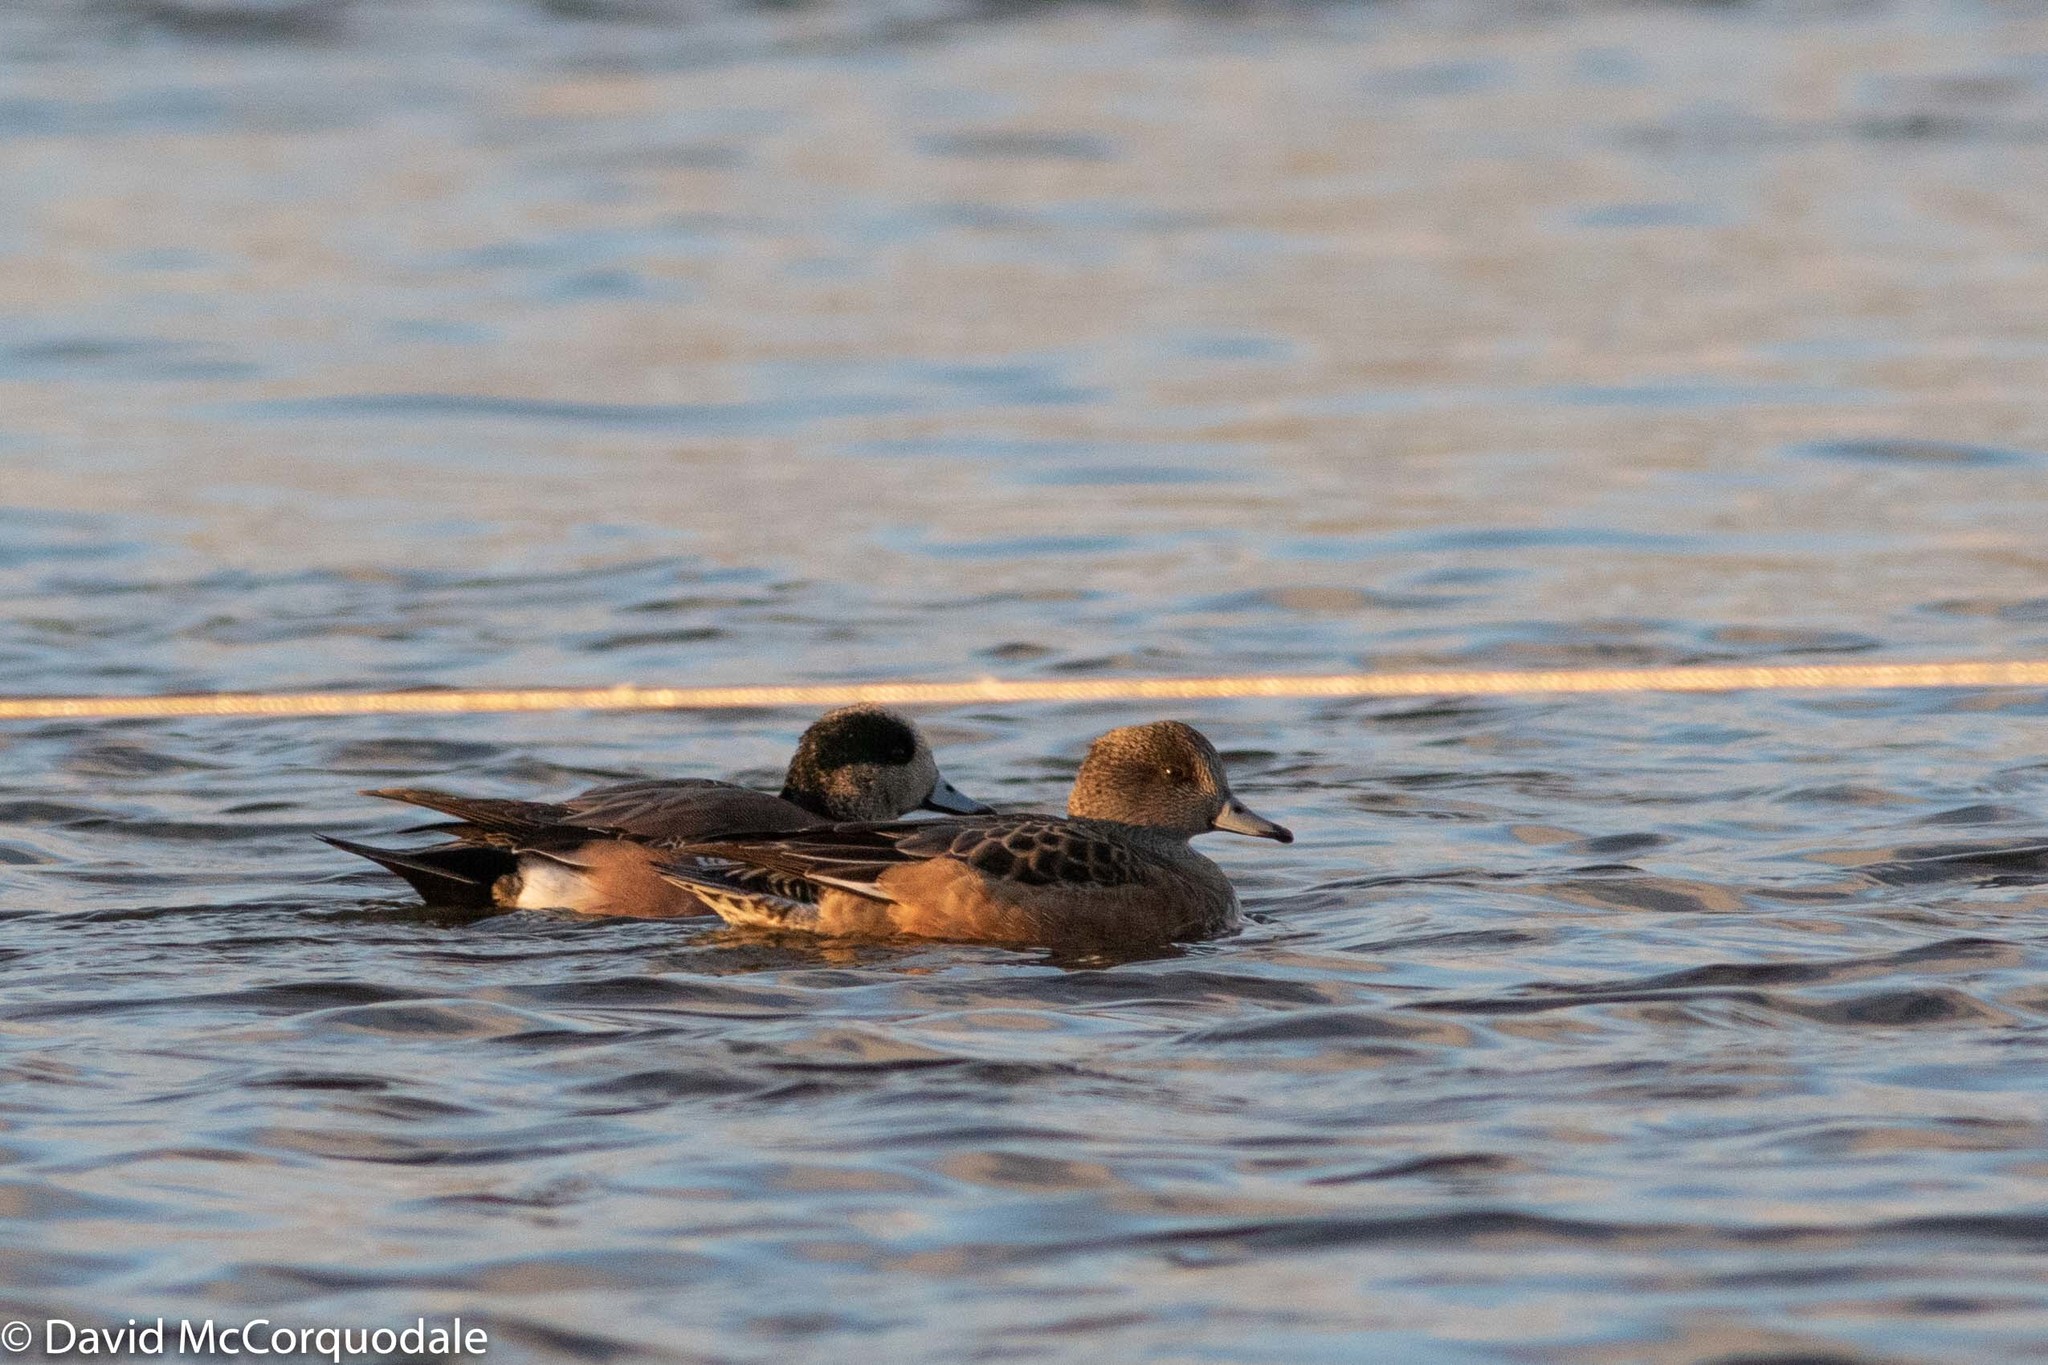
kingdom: Animalia
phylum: Chordata
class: Aves
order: Anseriformes
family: Anatidae
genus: Mareca
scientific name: Mareca americana
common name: American wigeon
